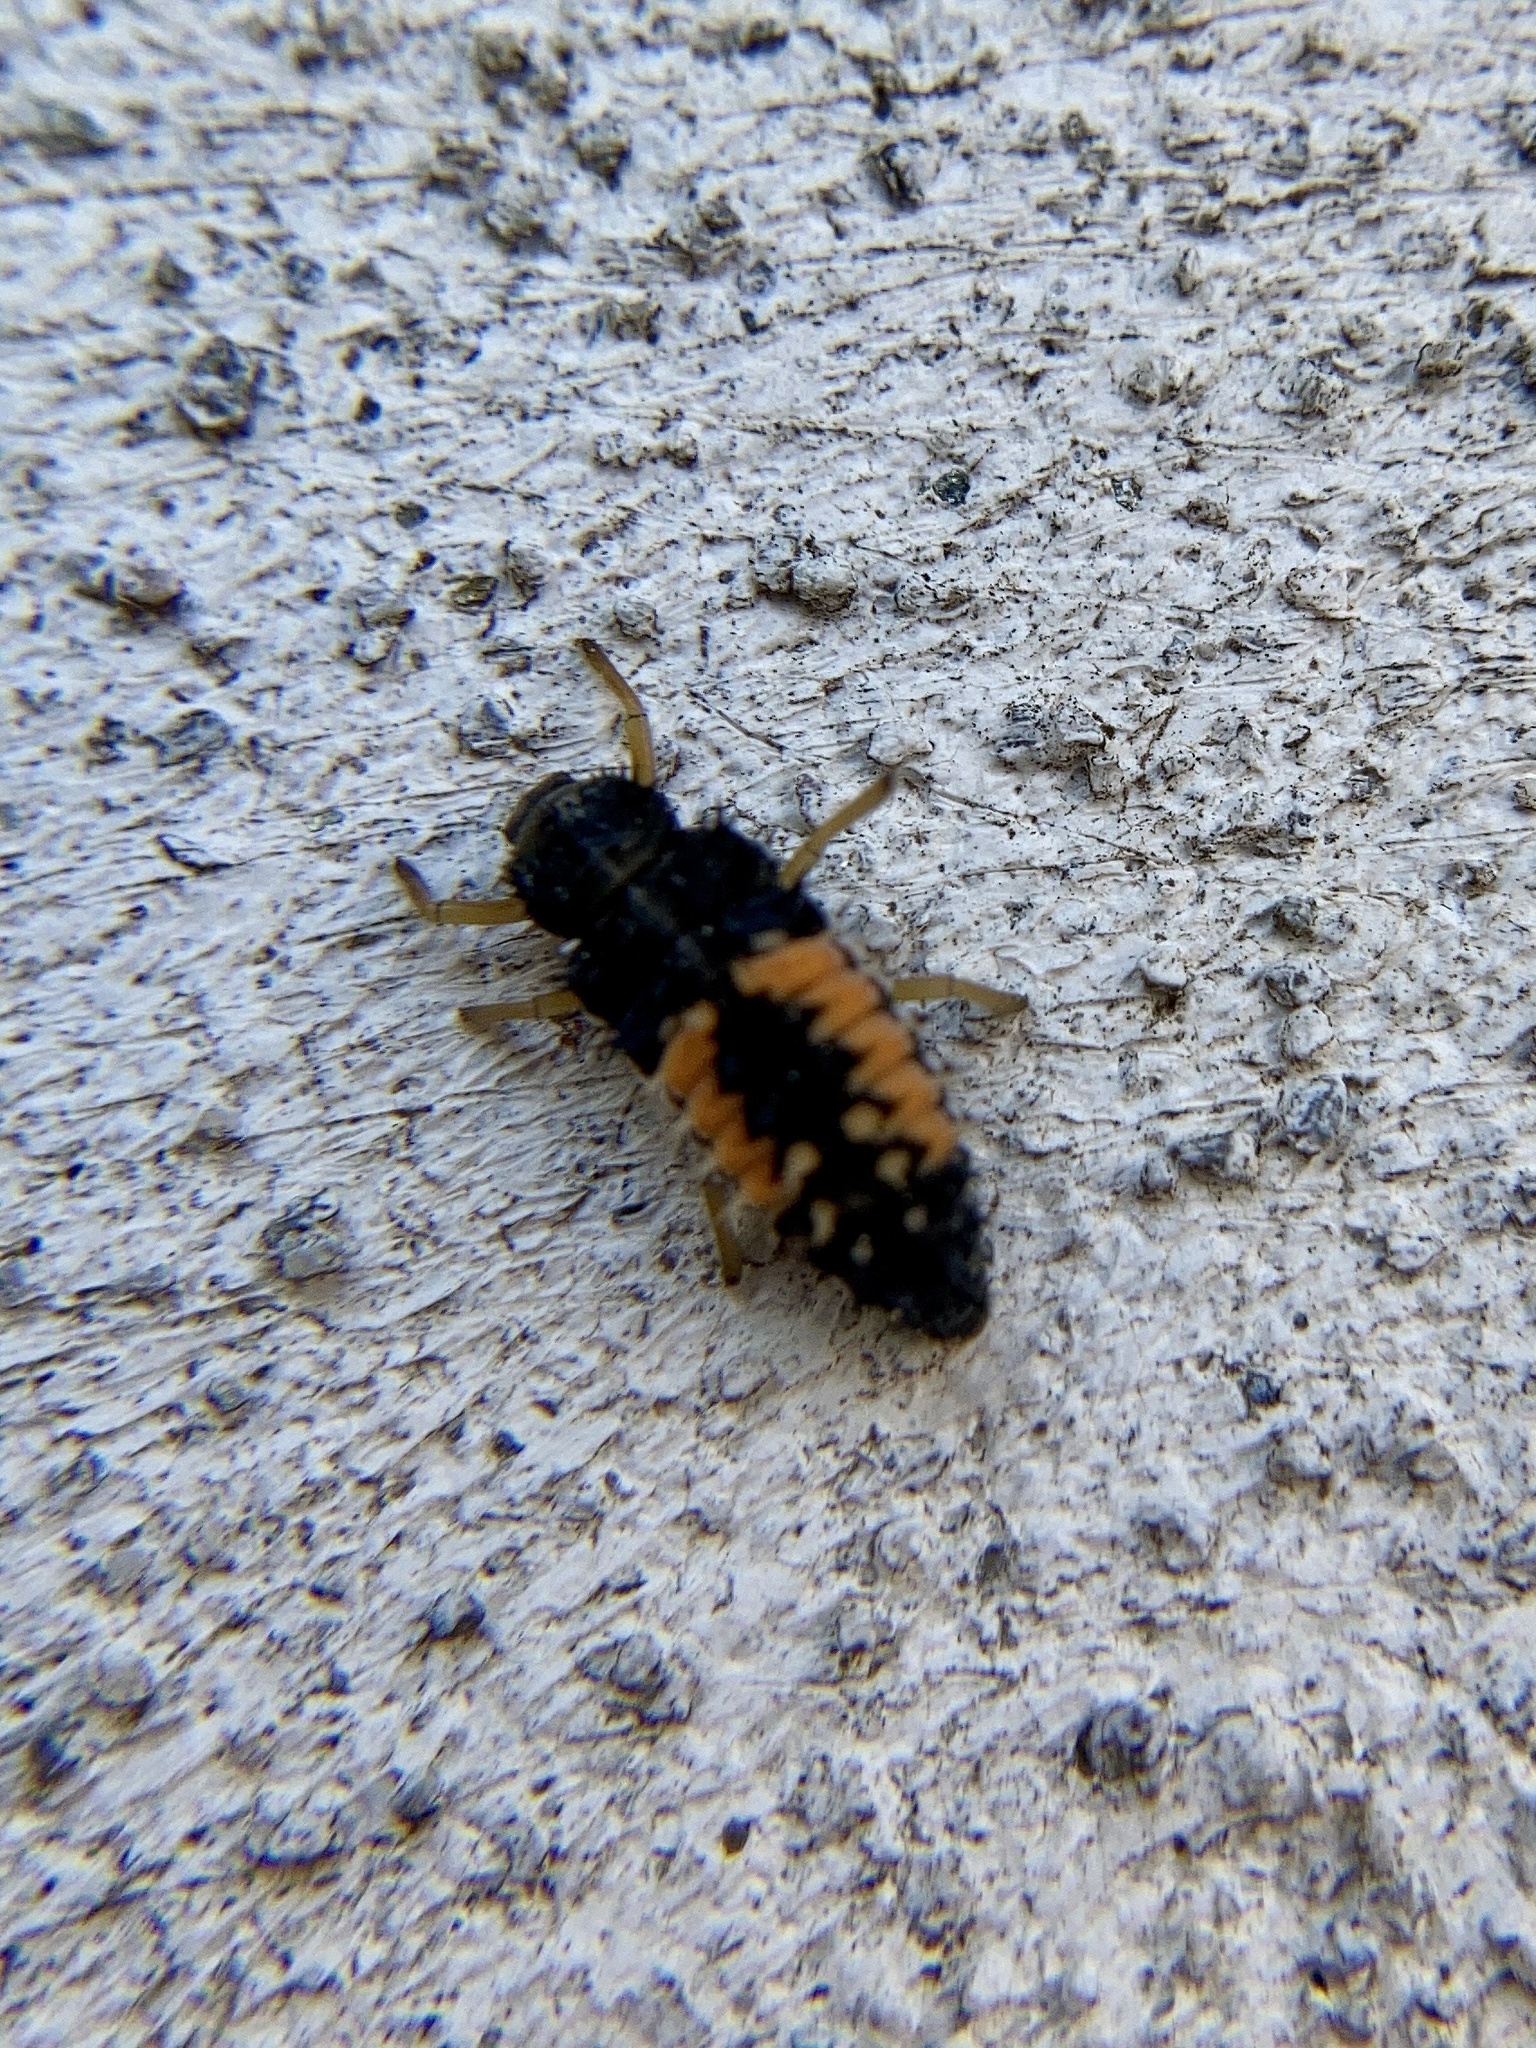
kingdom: Animalia
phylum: Arthropoda
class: Insecta
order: Coleoptera
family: Coccinellidae
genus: Harmonia
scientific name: Harmonia axyridis
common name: Harlequin ladybird
